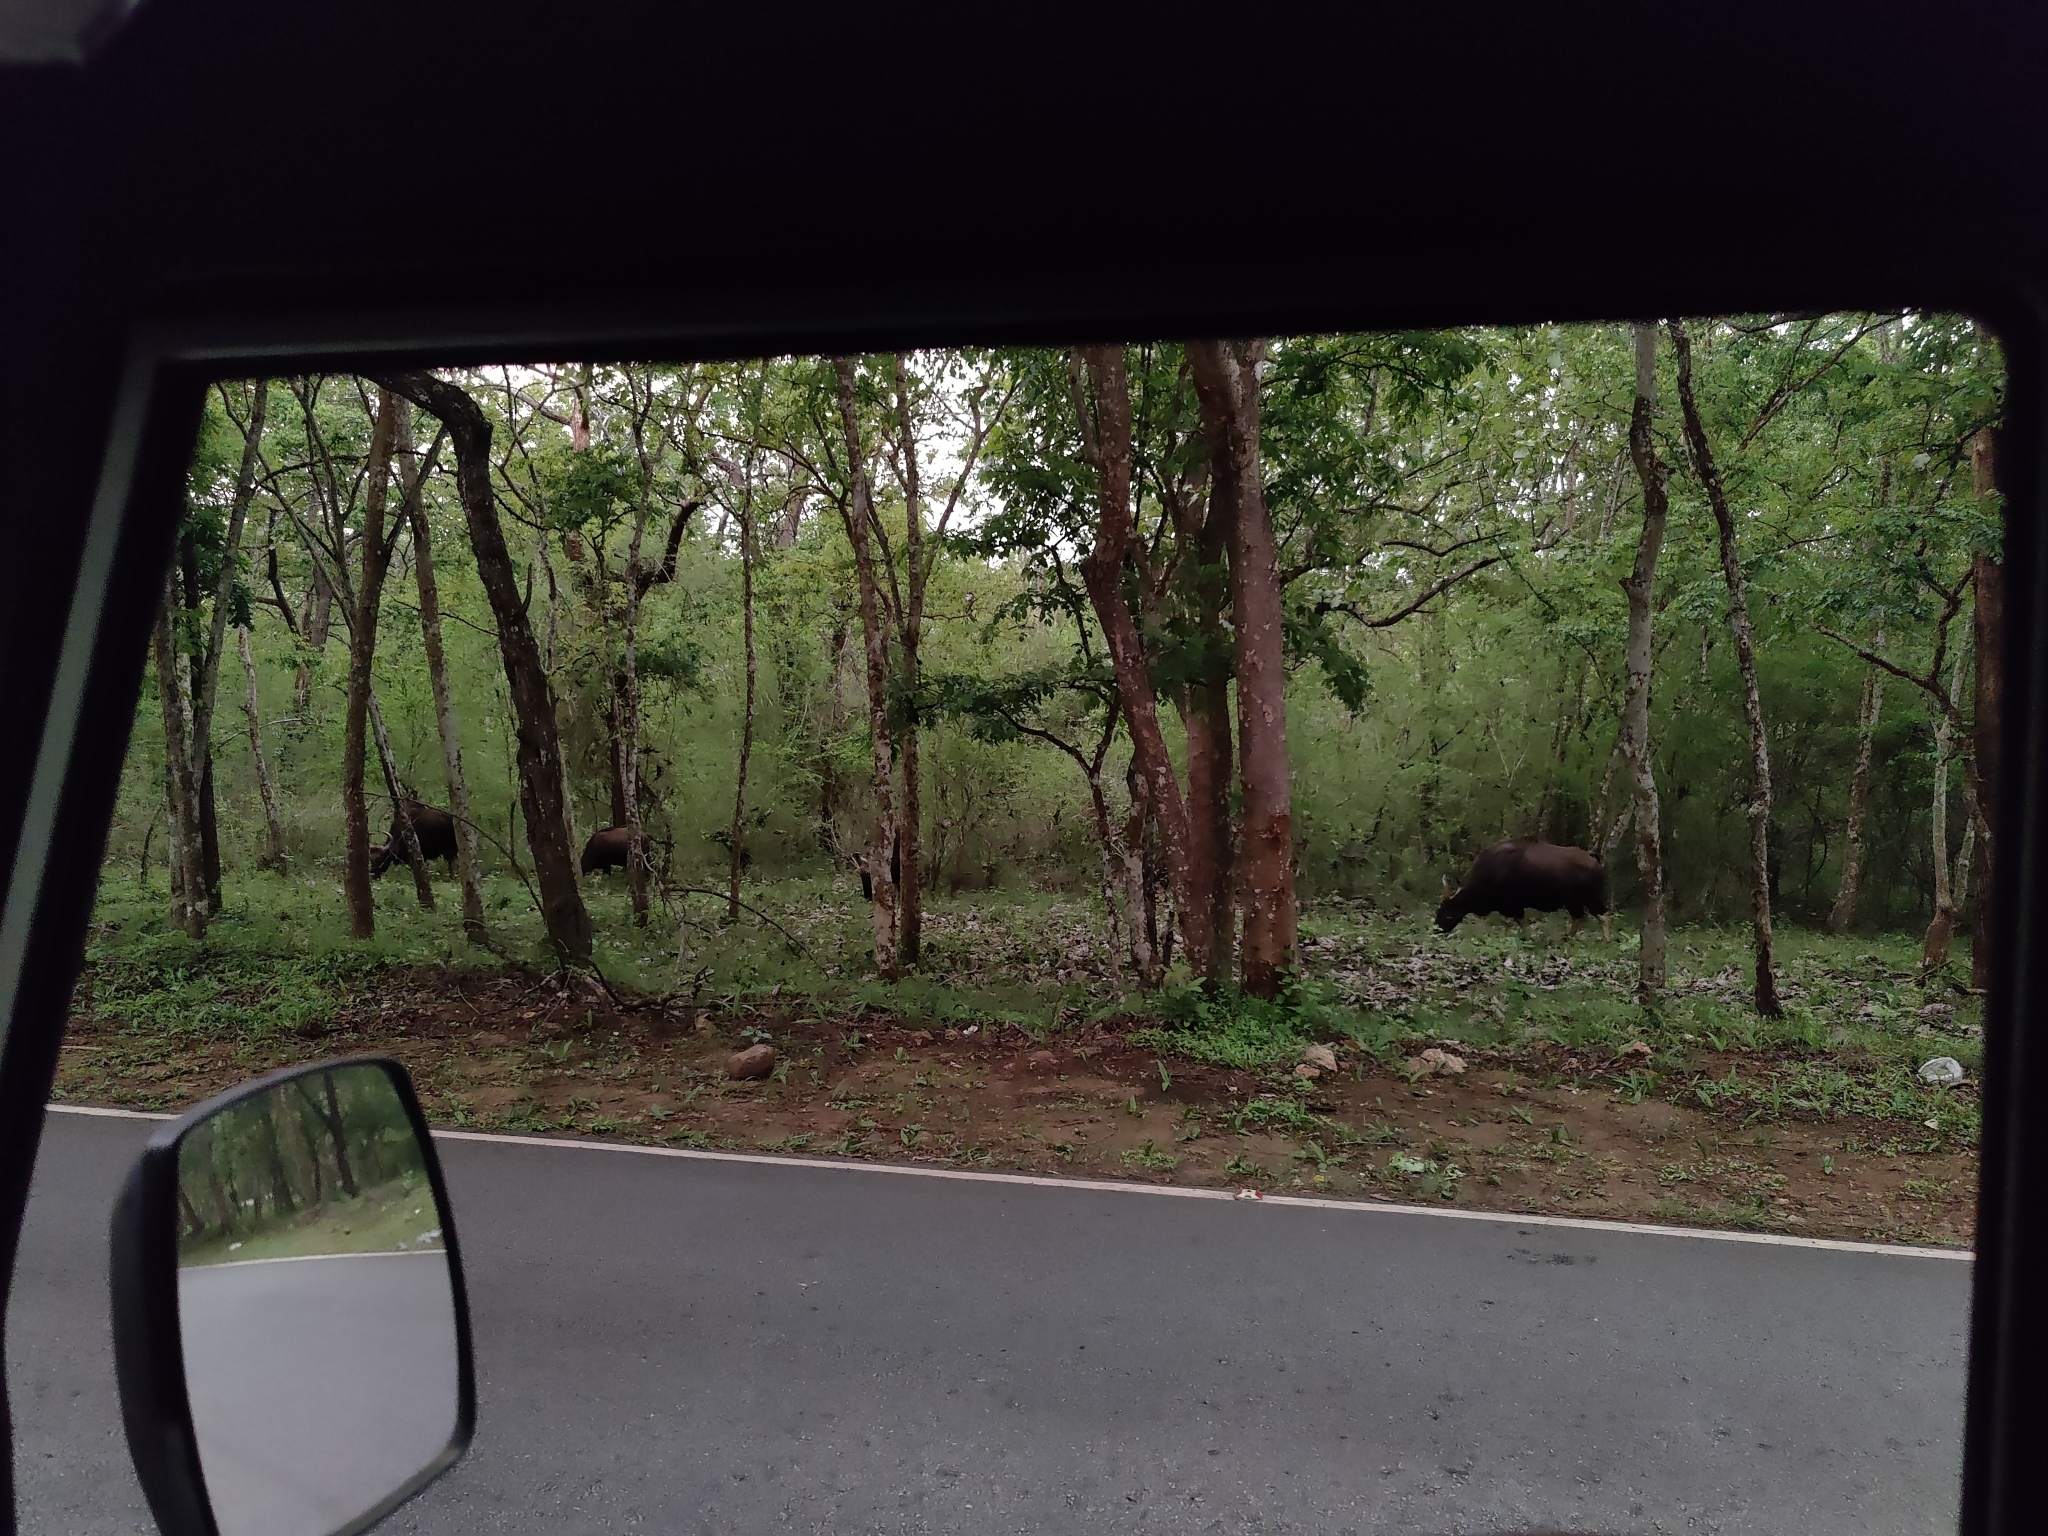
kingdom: Animalia
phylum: Chordata
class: Mammalia
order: Artiodactyla
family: Bovidae
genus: Bos
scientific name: Bos frontalis
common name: Gaur
